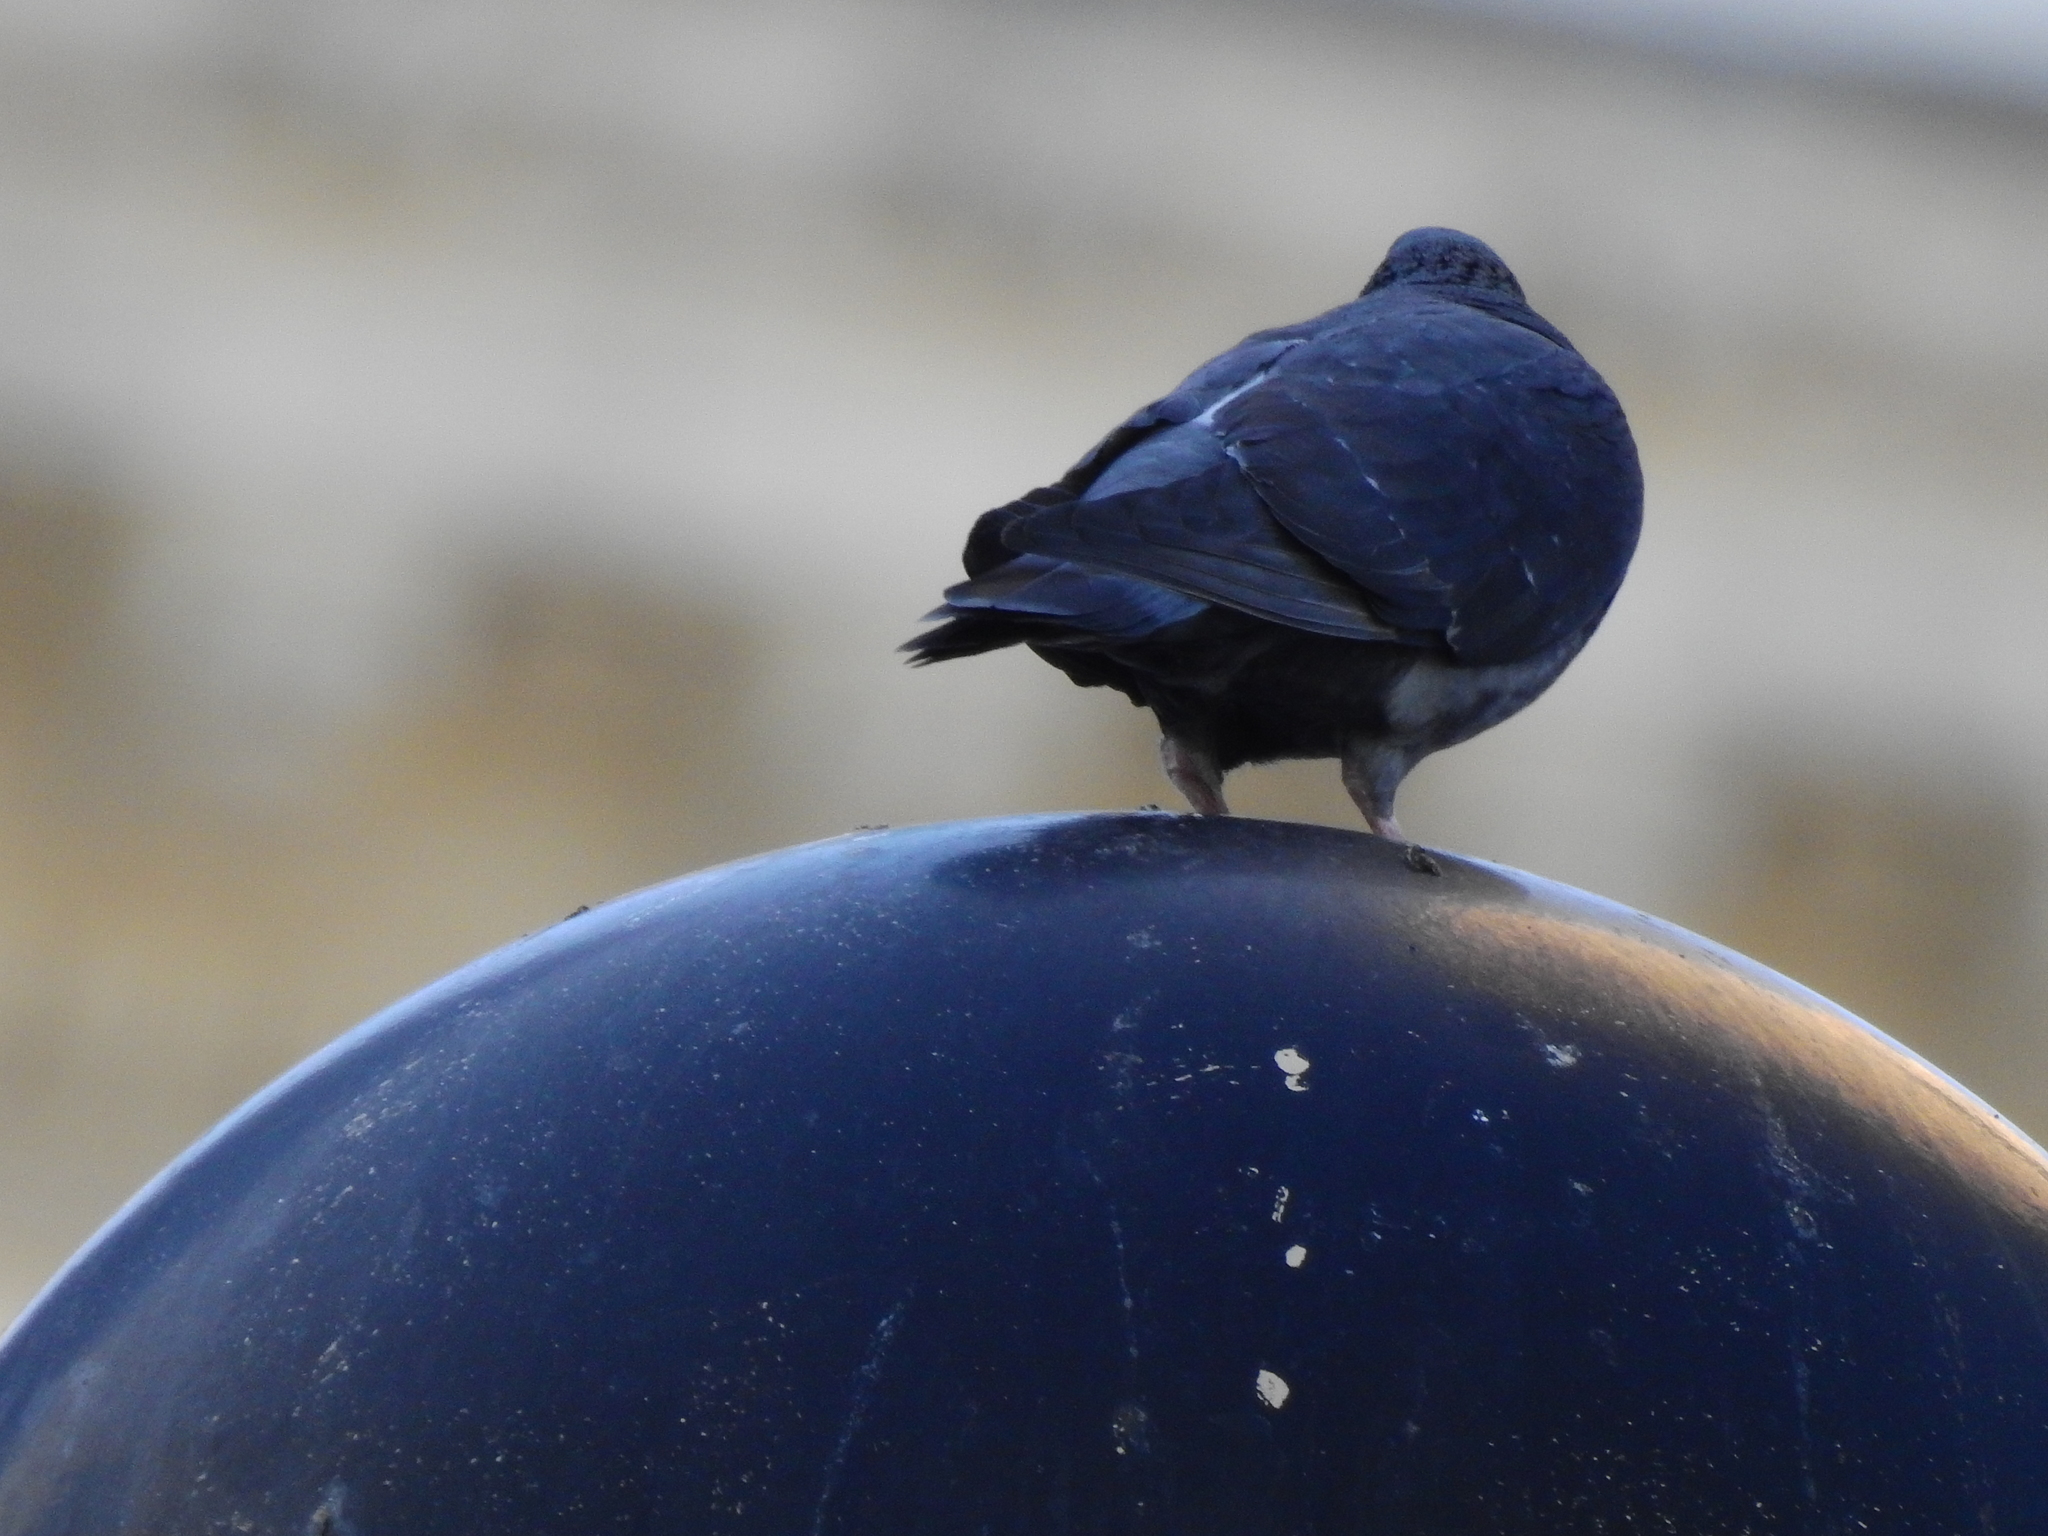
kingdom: Animalia
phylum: Chordata
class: Aves
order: Columbiformes
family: Columbidae
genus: Columba
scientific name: Columba livia
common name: Rock pigeon
